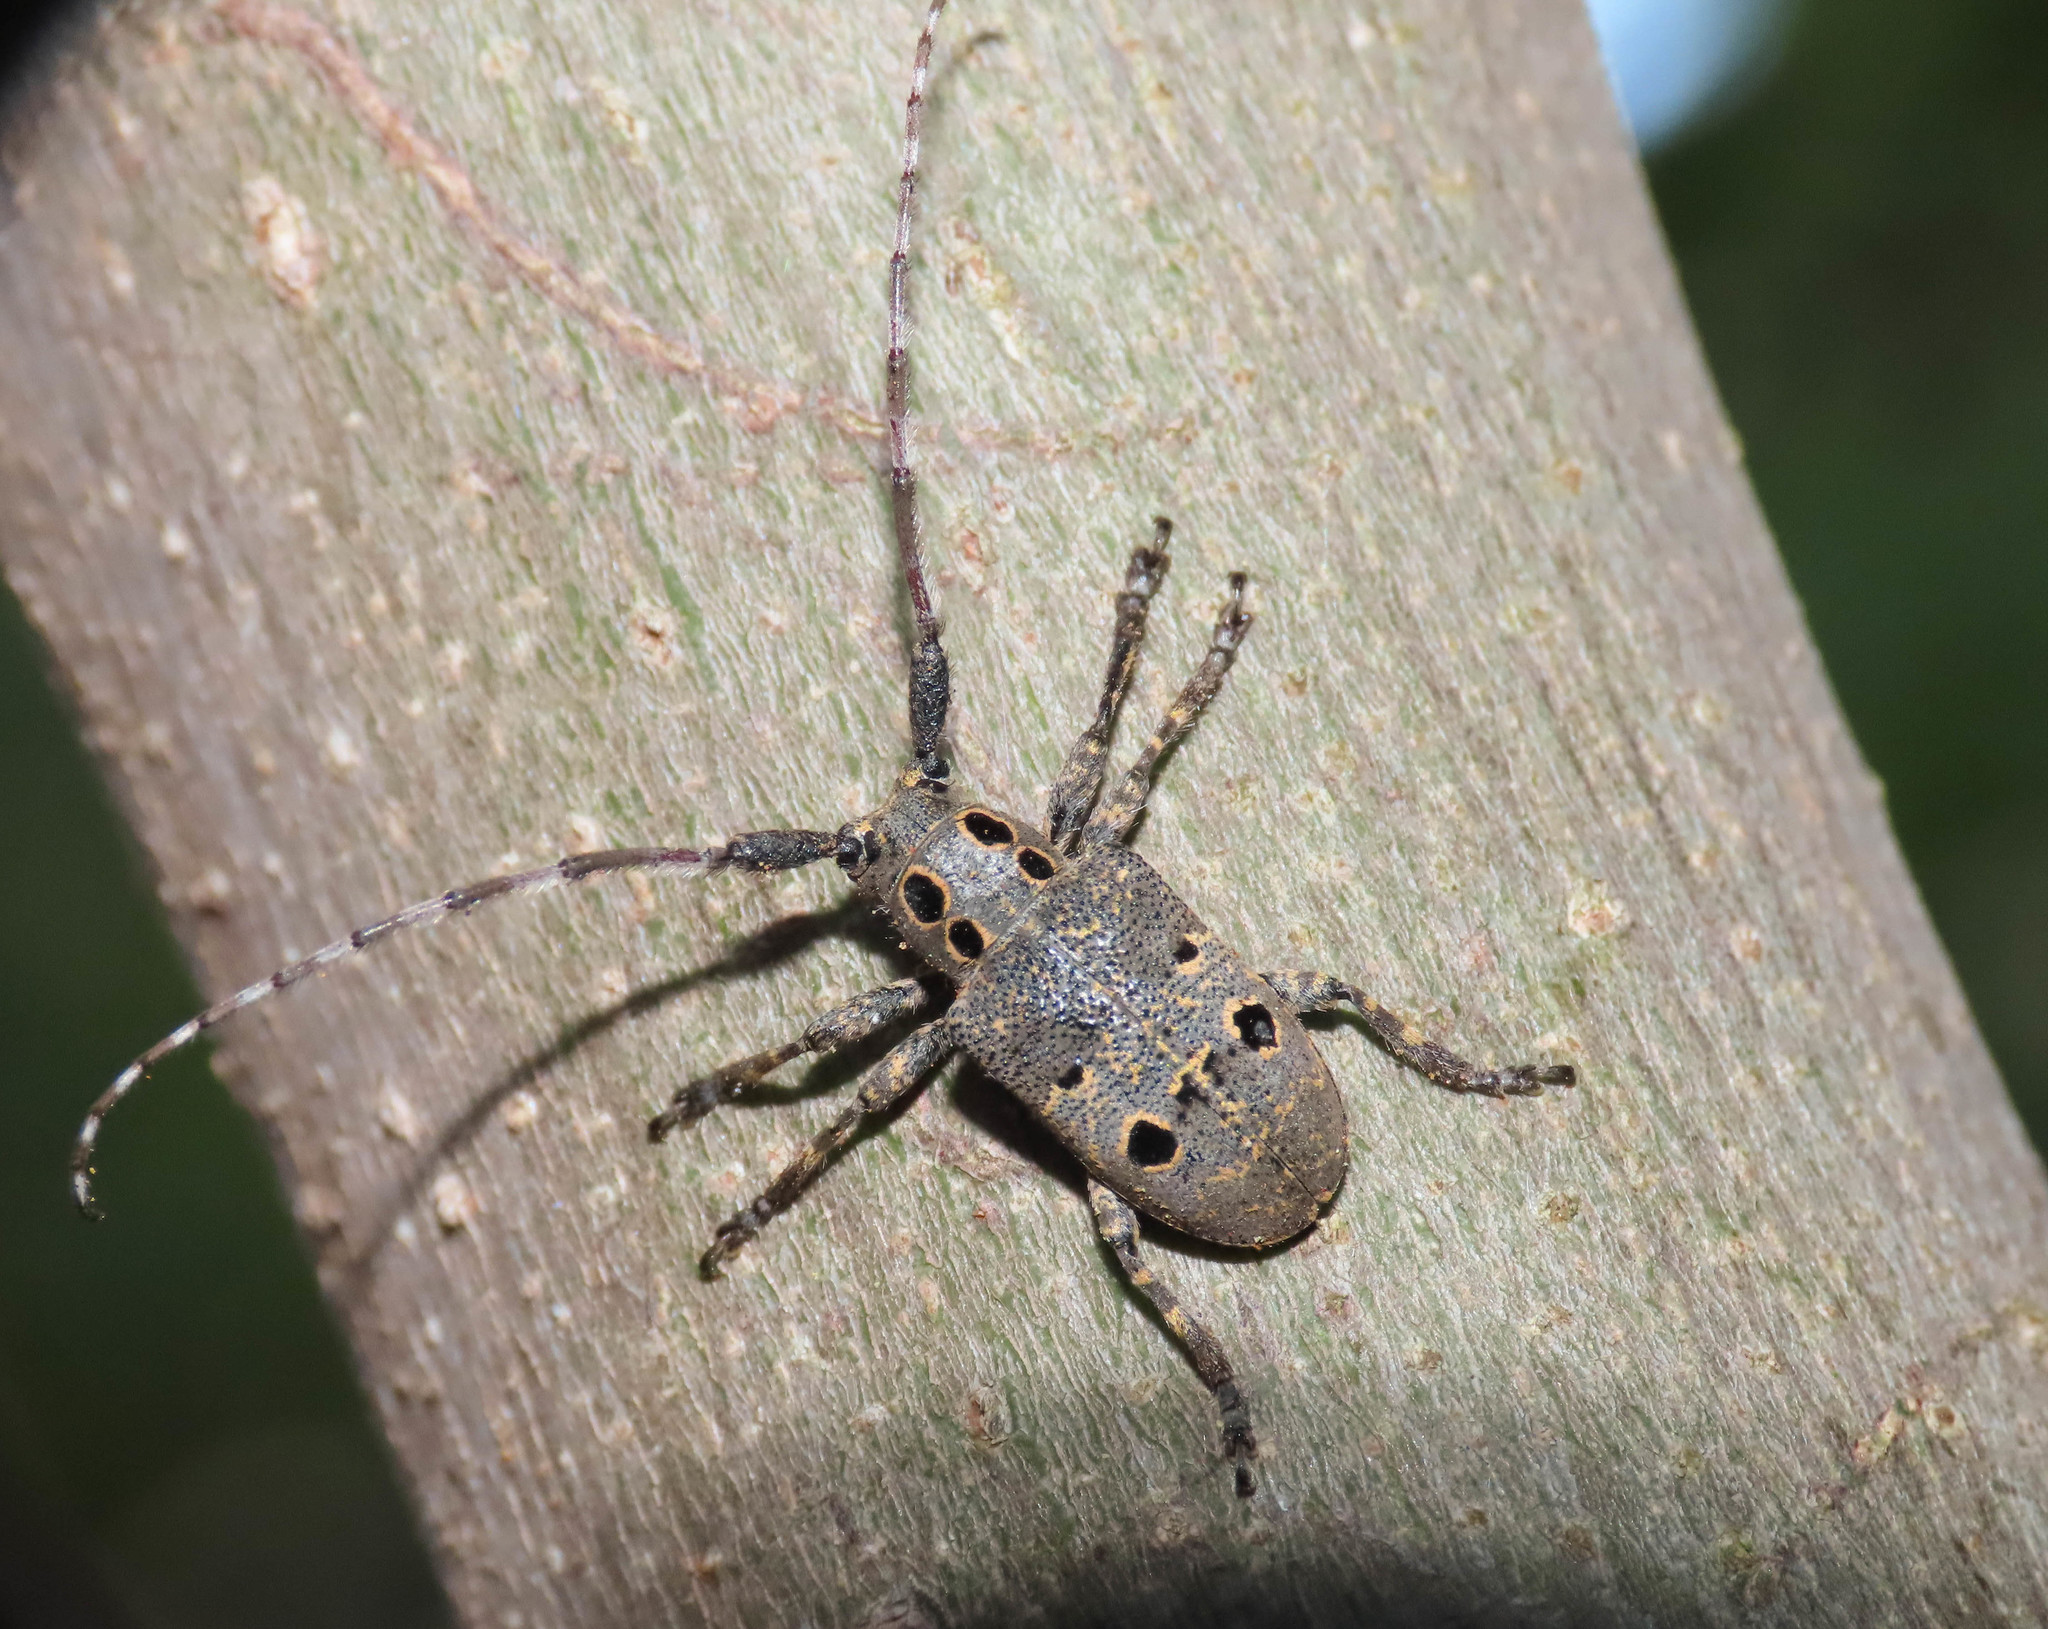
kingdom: Animalia
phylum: Arthropoda
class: Insecta
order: Coleoptera
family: Cerambycidae
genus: Mesosa
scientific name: Mesosa curculionoides
